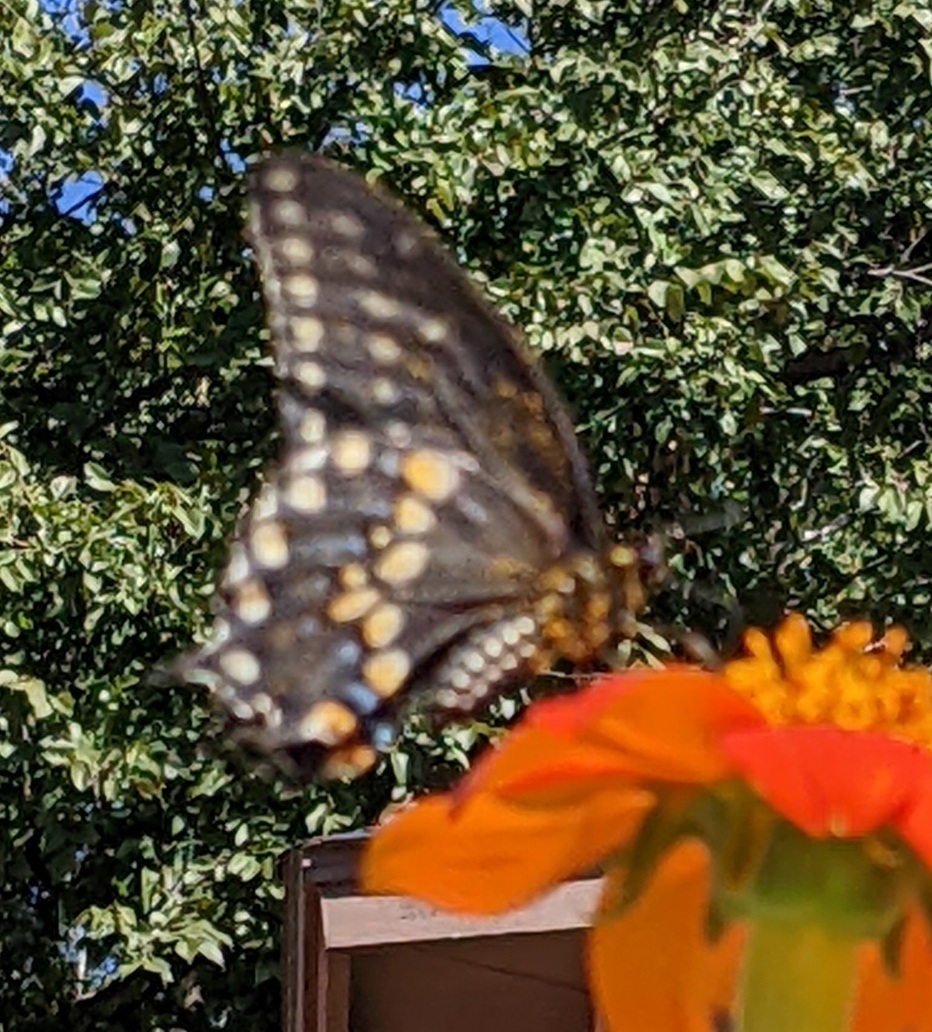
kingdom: Animalia
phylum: Arthropoda
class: Insecta
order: Lepidoptera
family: Papilionidae
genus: Papilio
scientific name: Papilio polyxenes
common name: Black swallowtail
